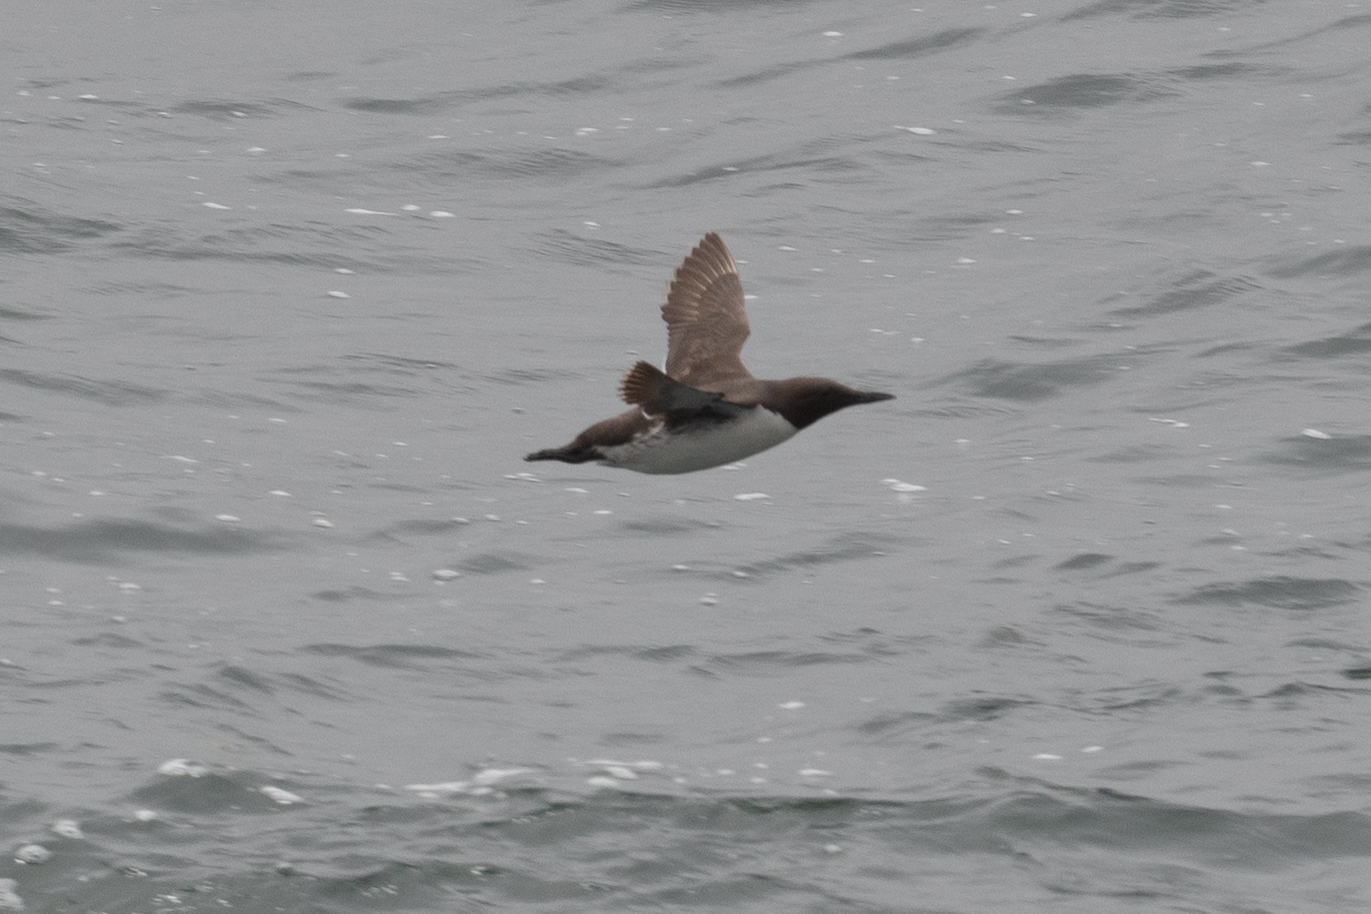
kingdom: Animalia
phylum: Chordata
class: Aves
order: Charadriiformes
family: Alcidae
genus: Uria
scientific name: Uria aalge
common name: Common murre
